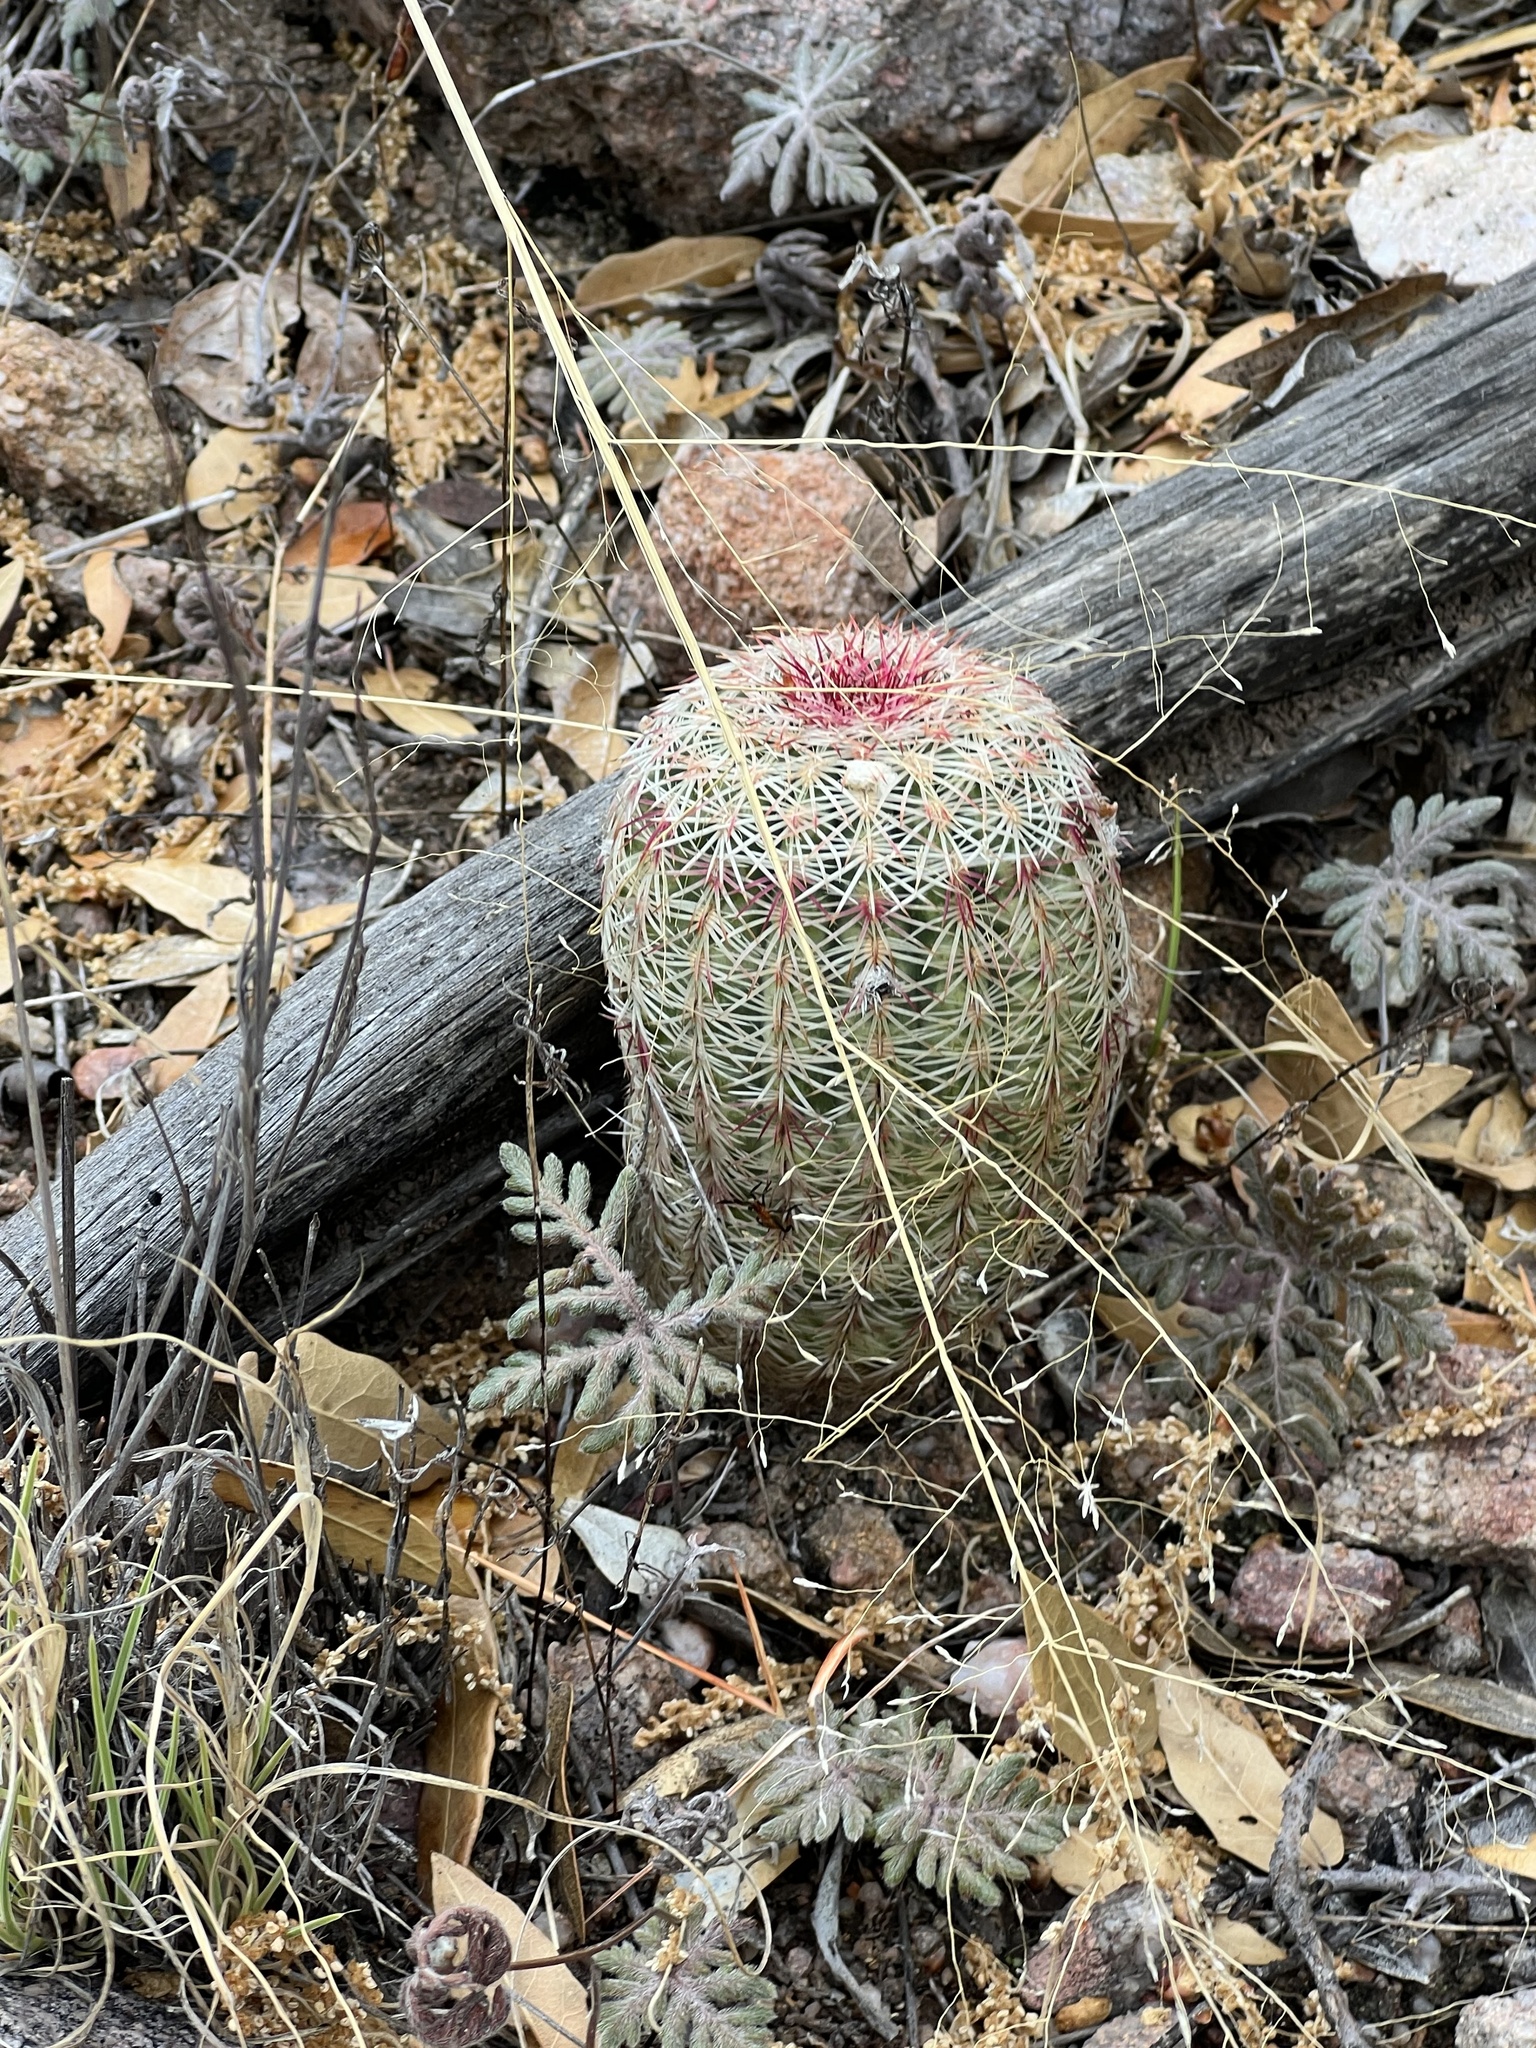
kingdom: Plantae
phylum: Tracheophyta
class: Magnoliopsida
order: Caryophyllales
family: Cactaceae
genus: Echinocereus
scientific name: Echinocereus rigidissimus
